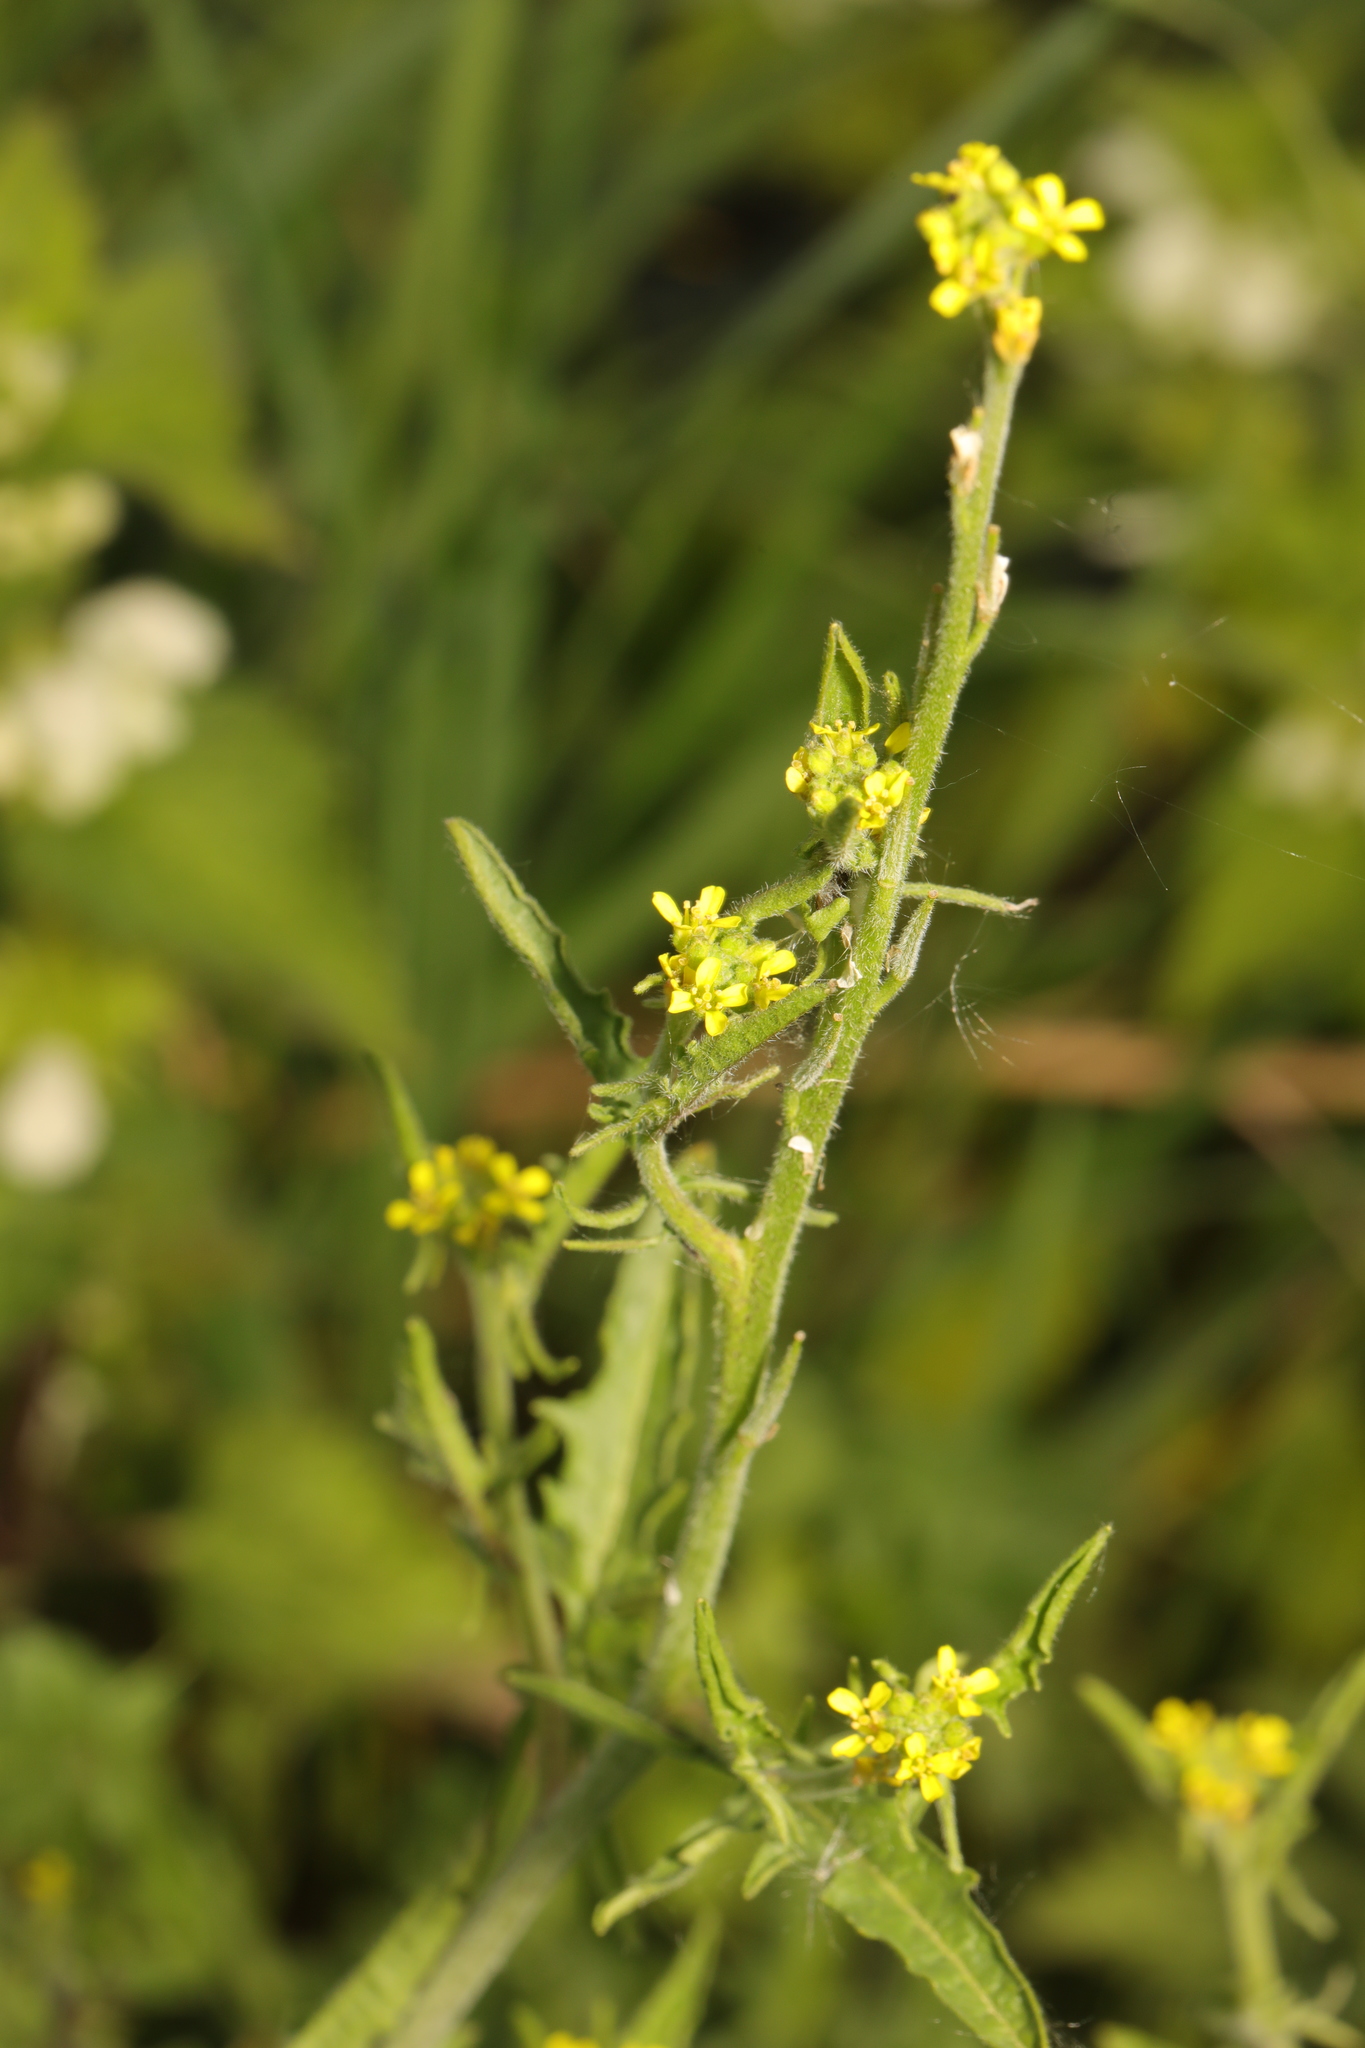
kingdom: Plantae
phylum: Tracheophyta
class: Magnoliopsida
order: Brassicales
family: Brassicaceae
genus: Sisymbrium
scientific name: Sisymbrium officinale
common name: Hedge mustard
